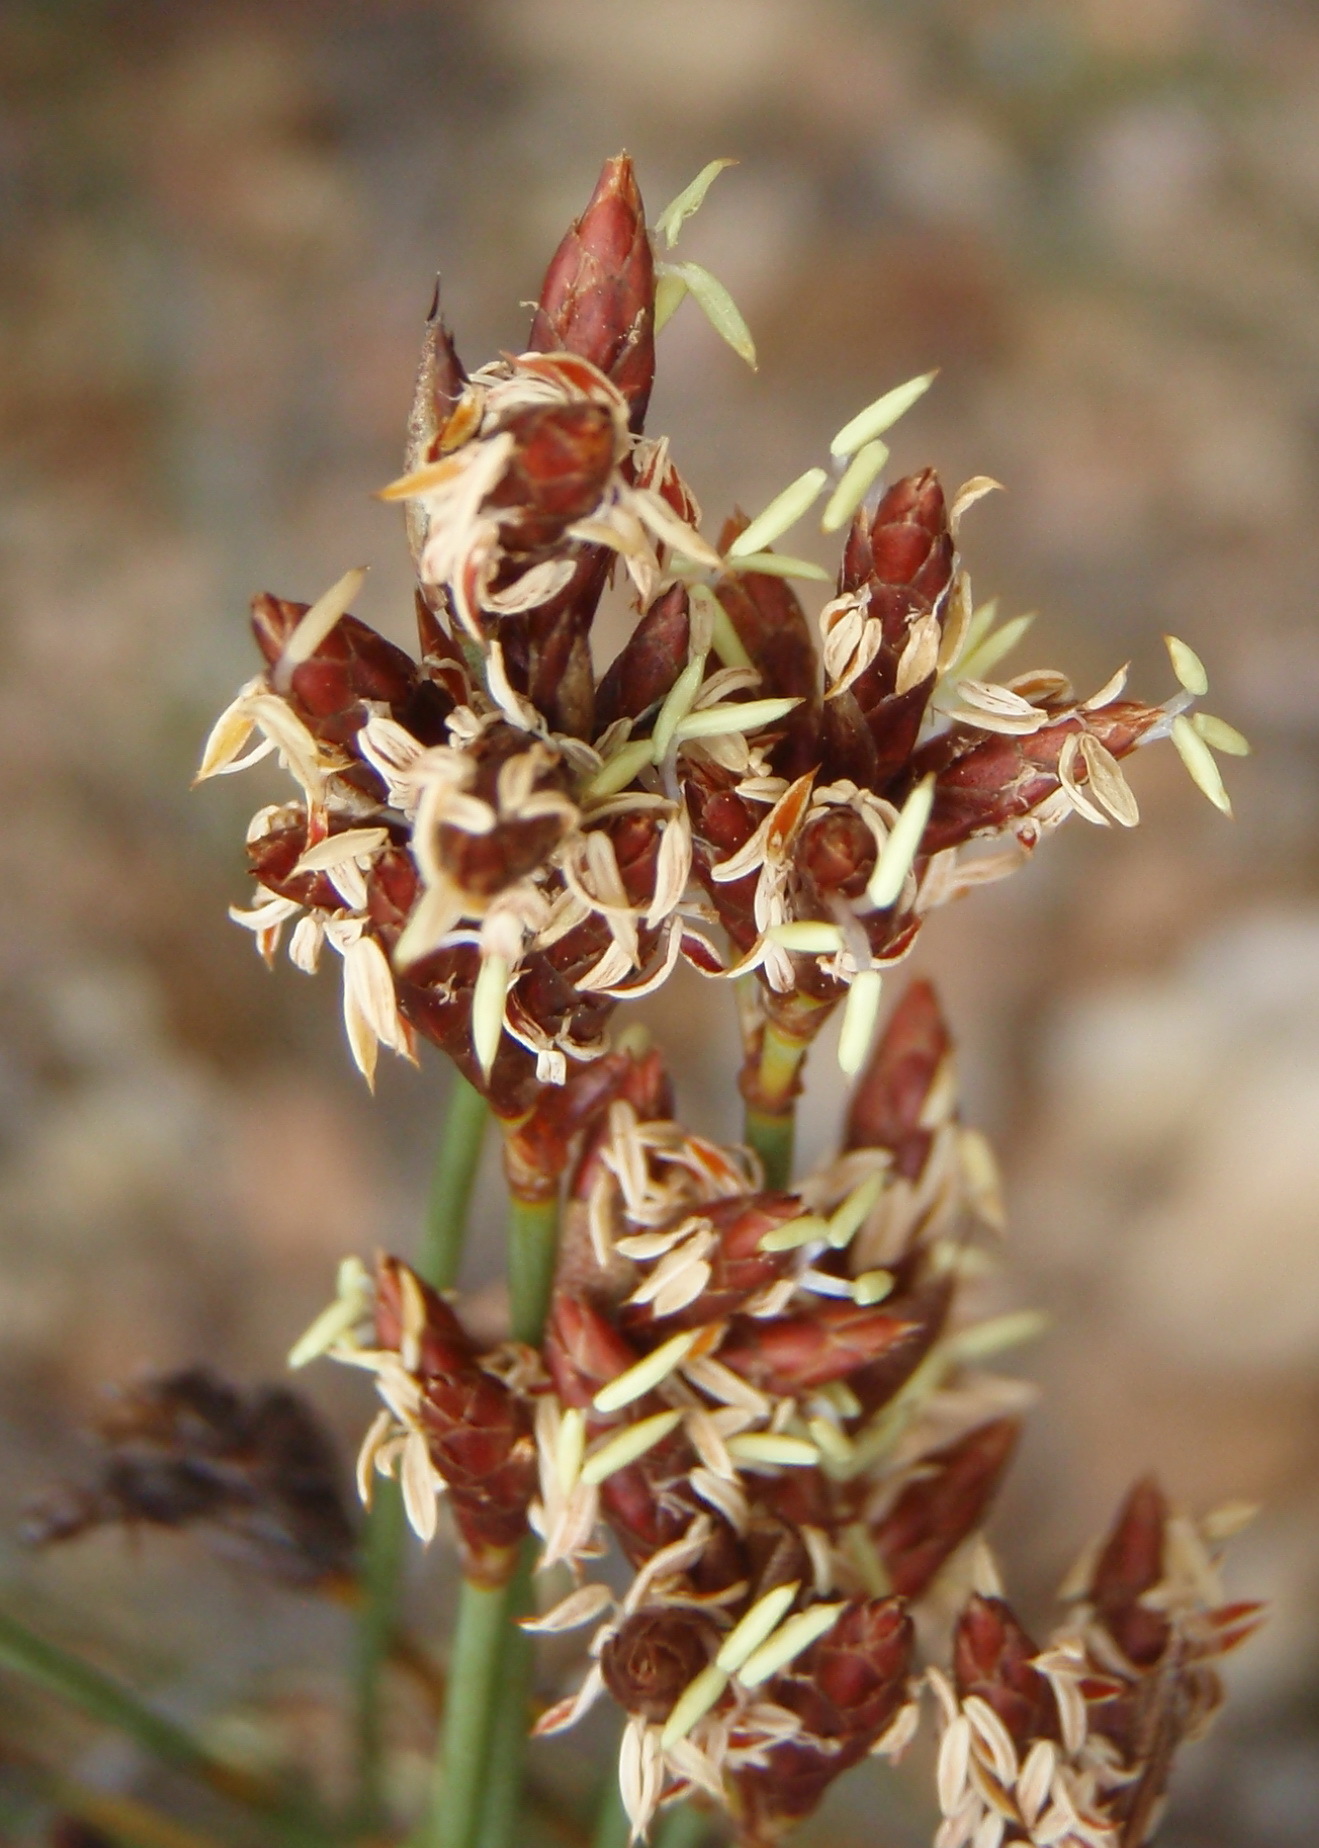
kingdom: Plantae
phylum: Tracheophyta
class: Liliopsida
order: Poales
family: Restionaceae
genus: Hypodiscus
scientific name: Hypodiscus striatus
